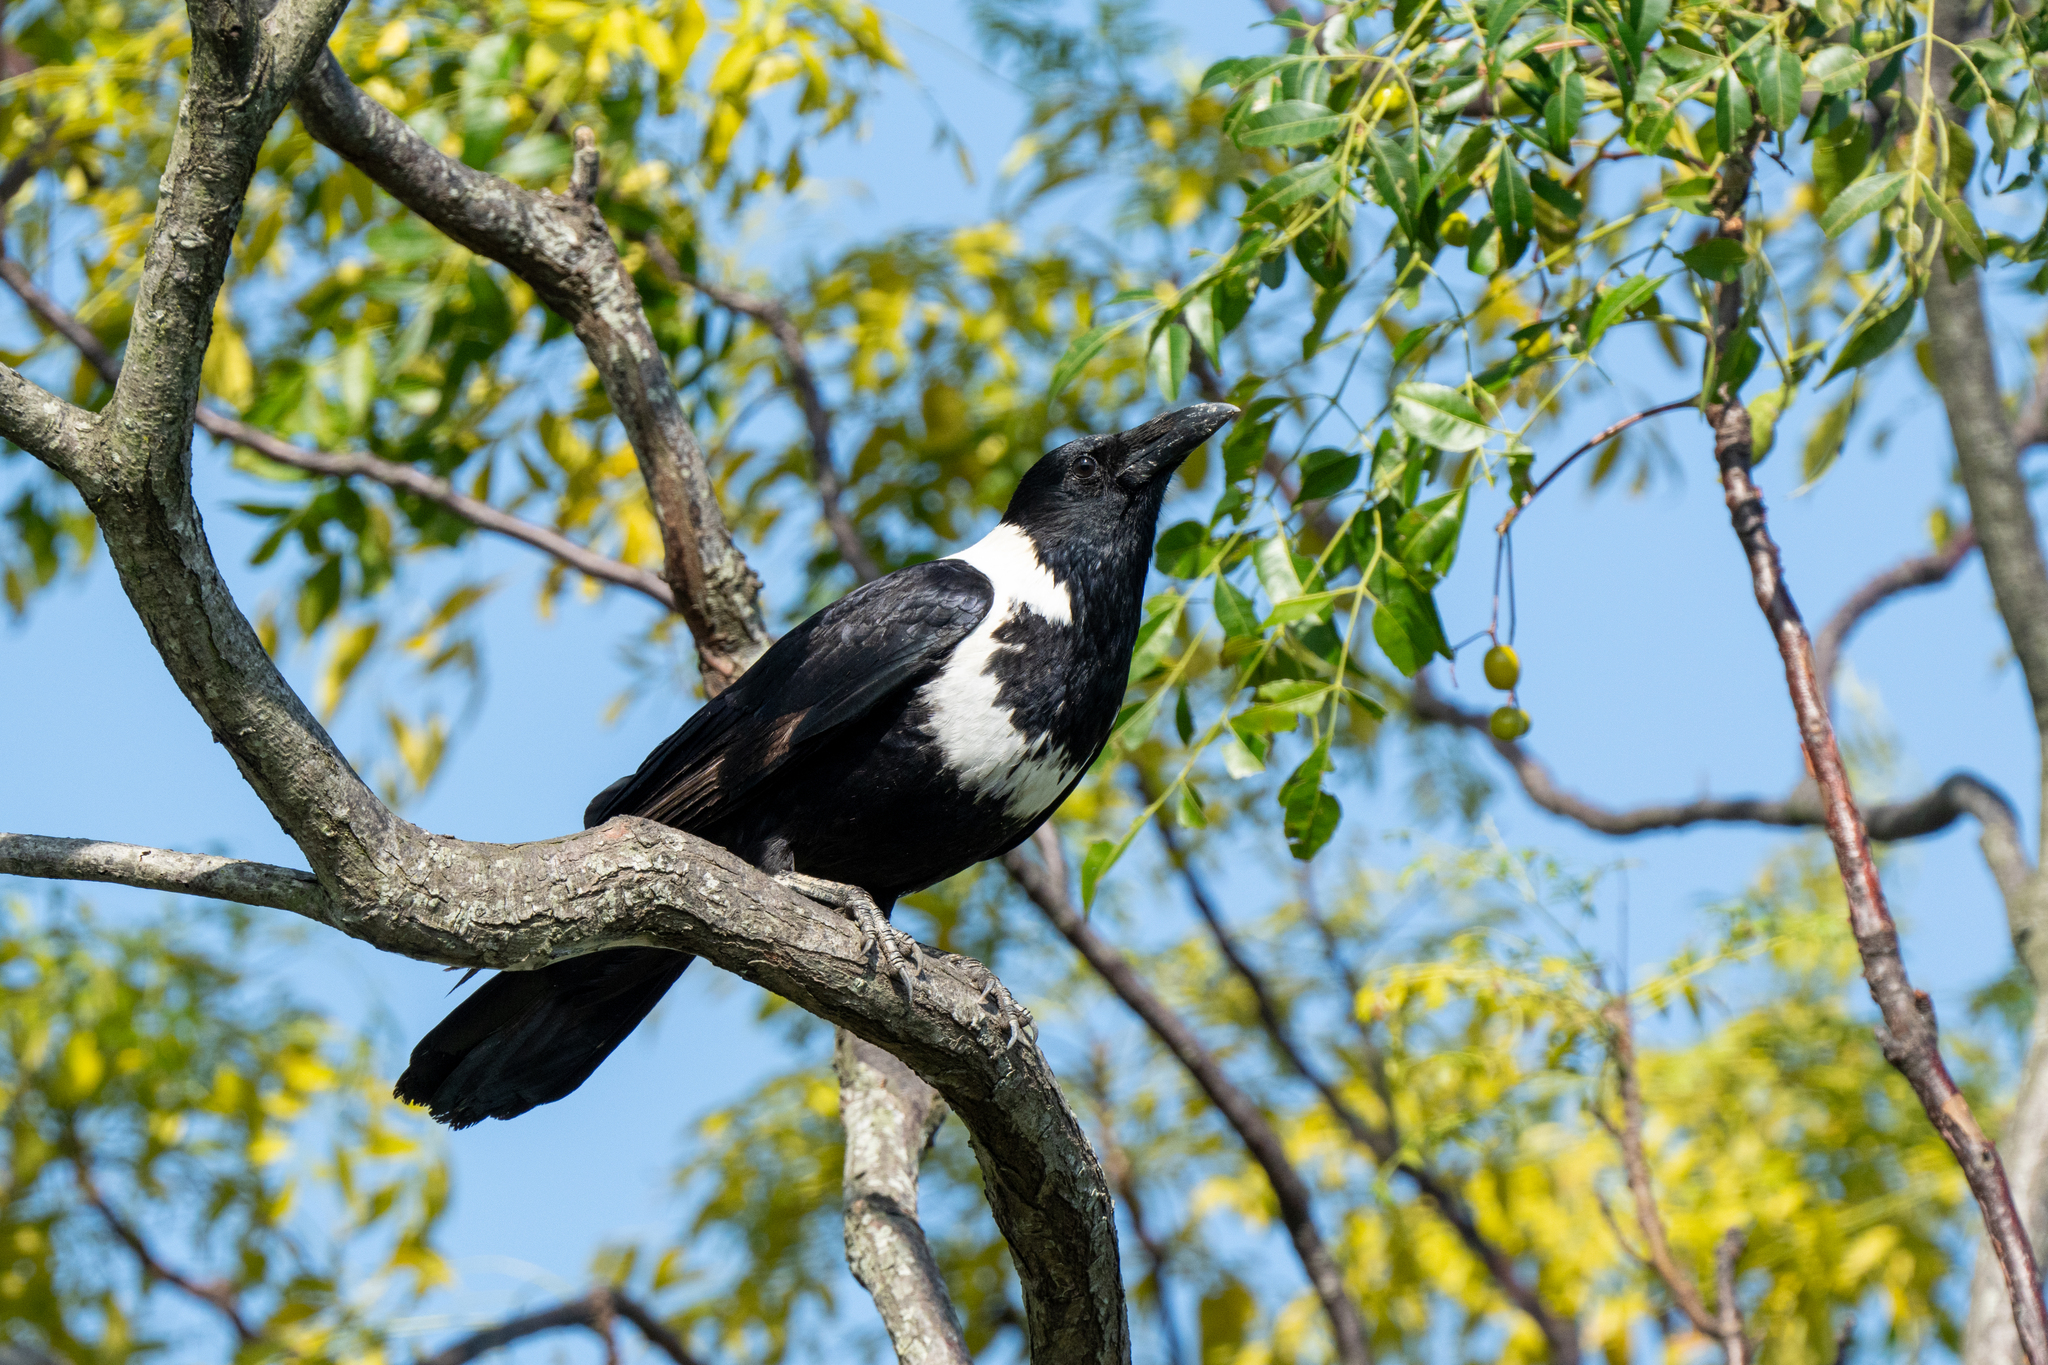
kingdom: Animalia
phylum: Chordata
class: Aves
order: Passeriformes
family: Corvidae
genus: Corvus
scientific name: Corvus pectoralis
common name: Collared crow
